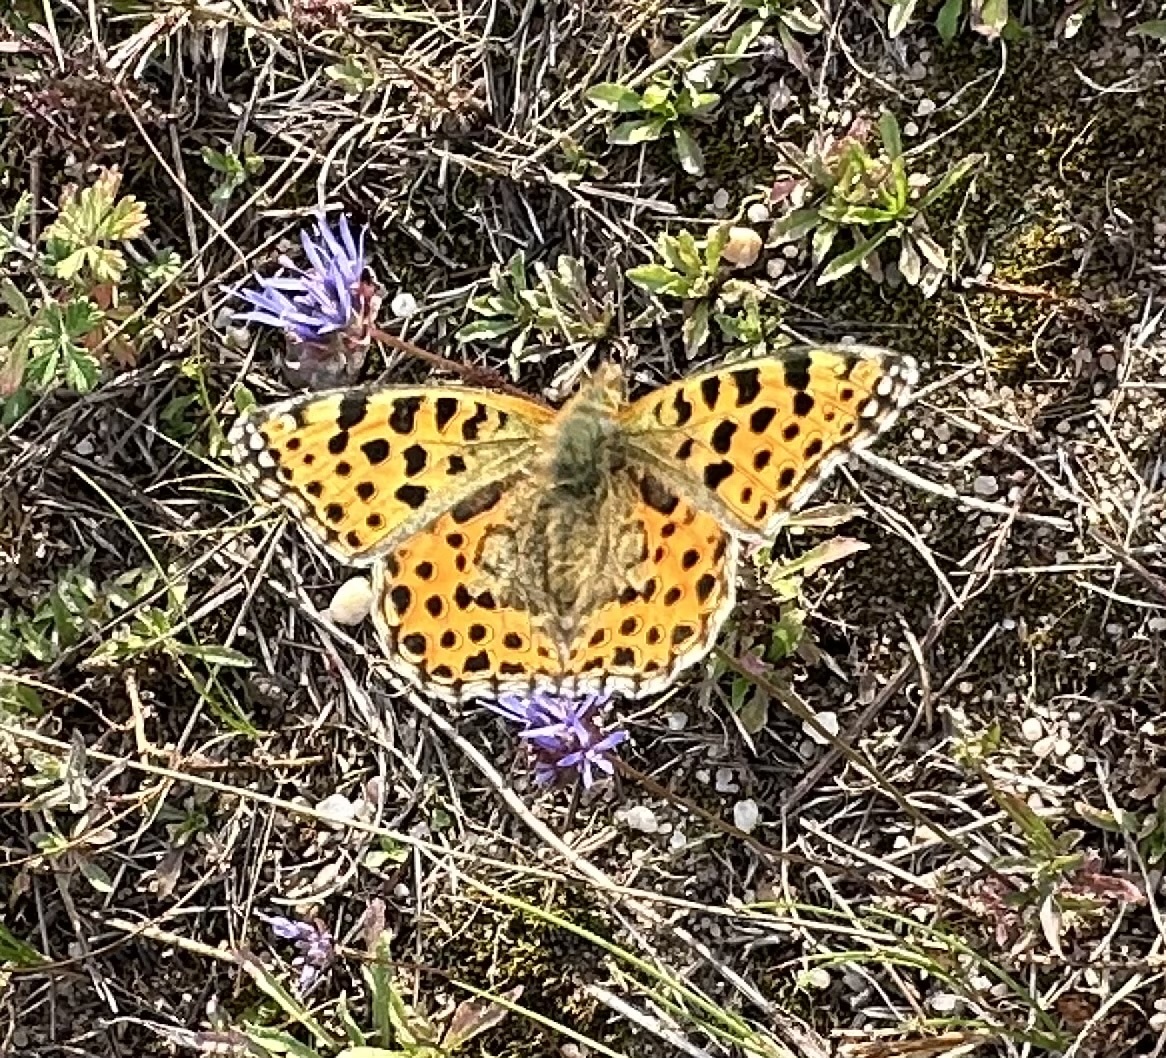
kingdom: Animalia
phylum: Arthropoda
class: Insecta
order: Lepidoptera
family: Nymphalidae
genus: Issoria
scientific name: Issoria lathonia
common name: Queen of spain fritillary
